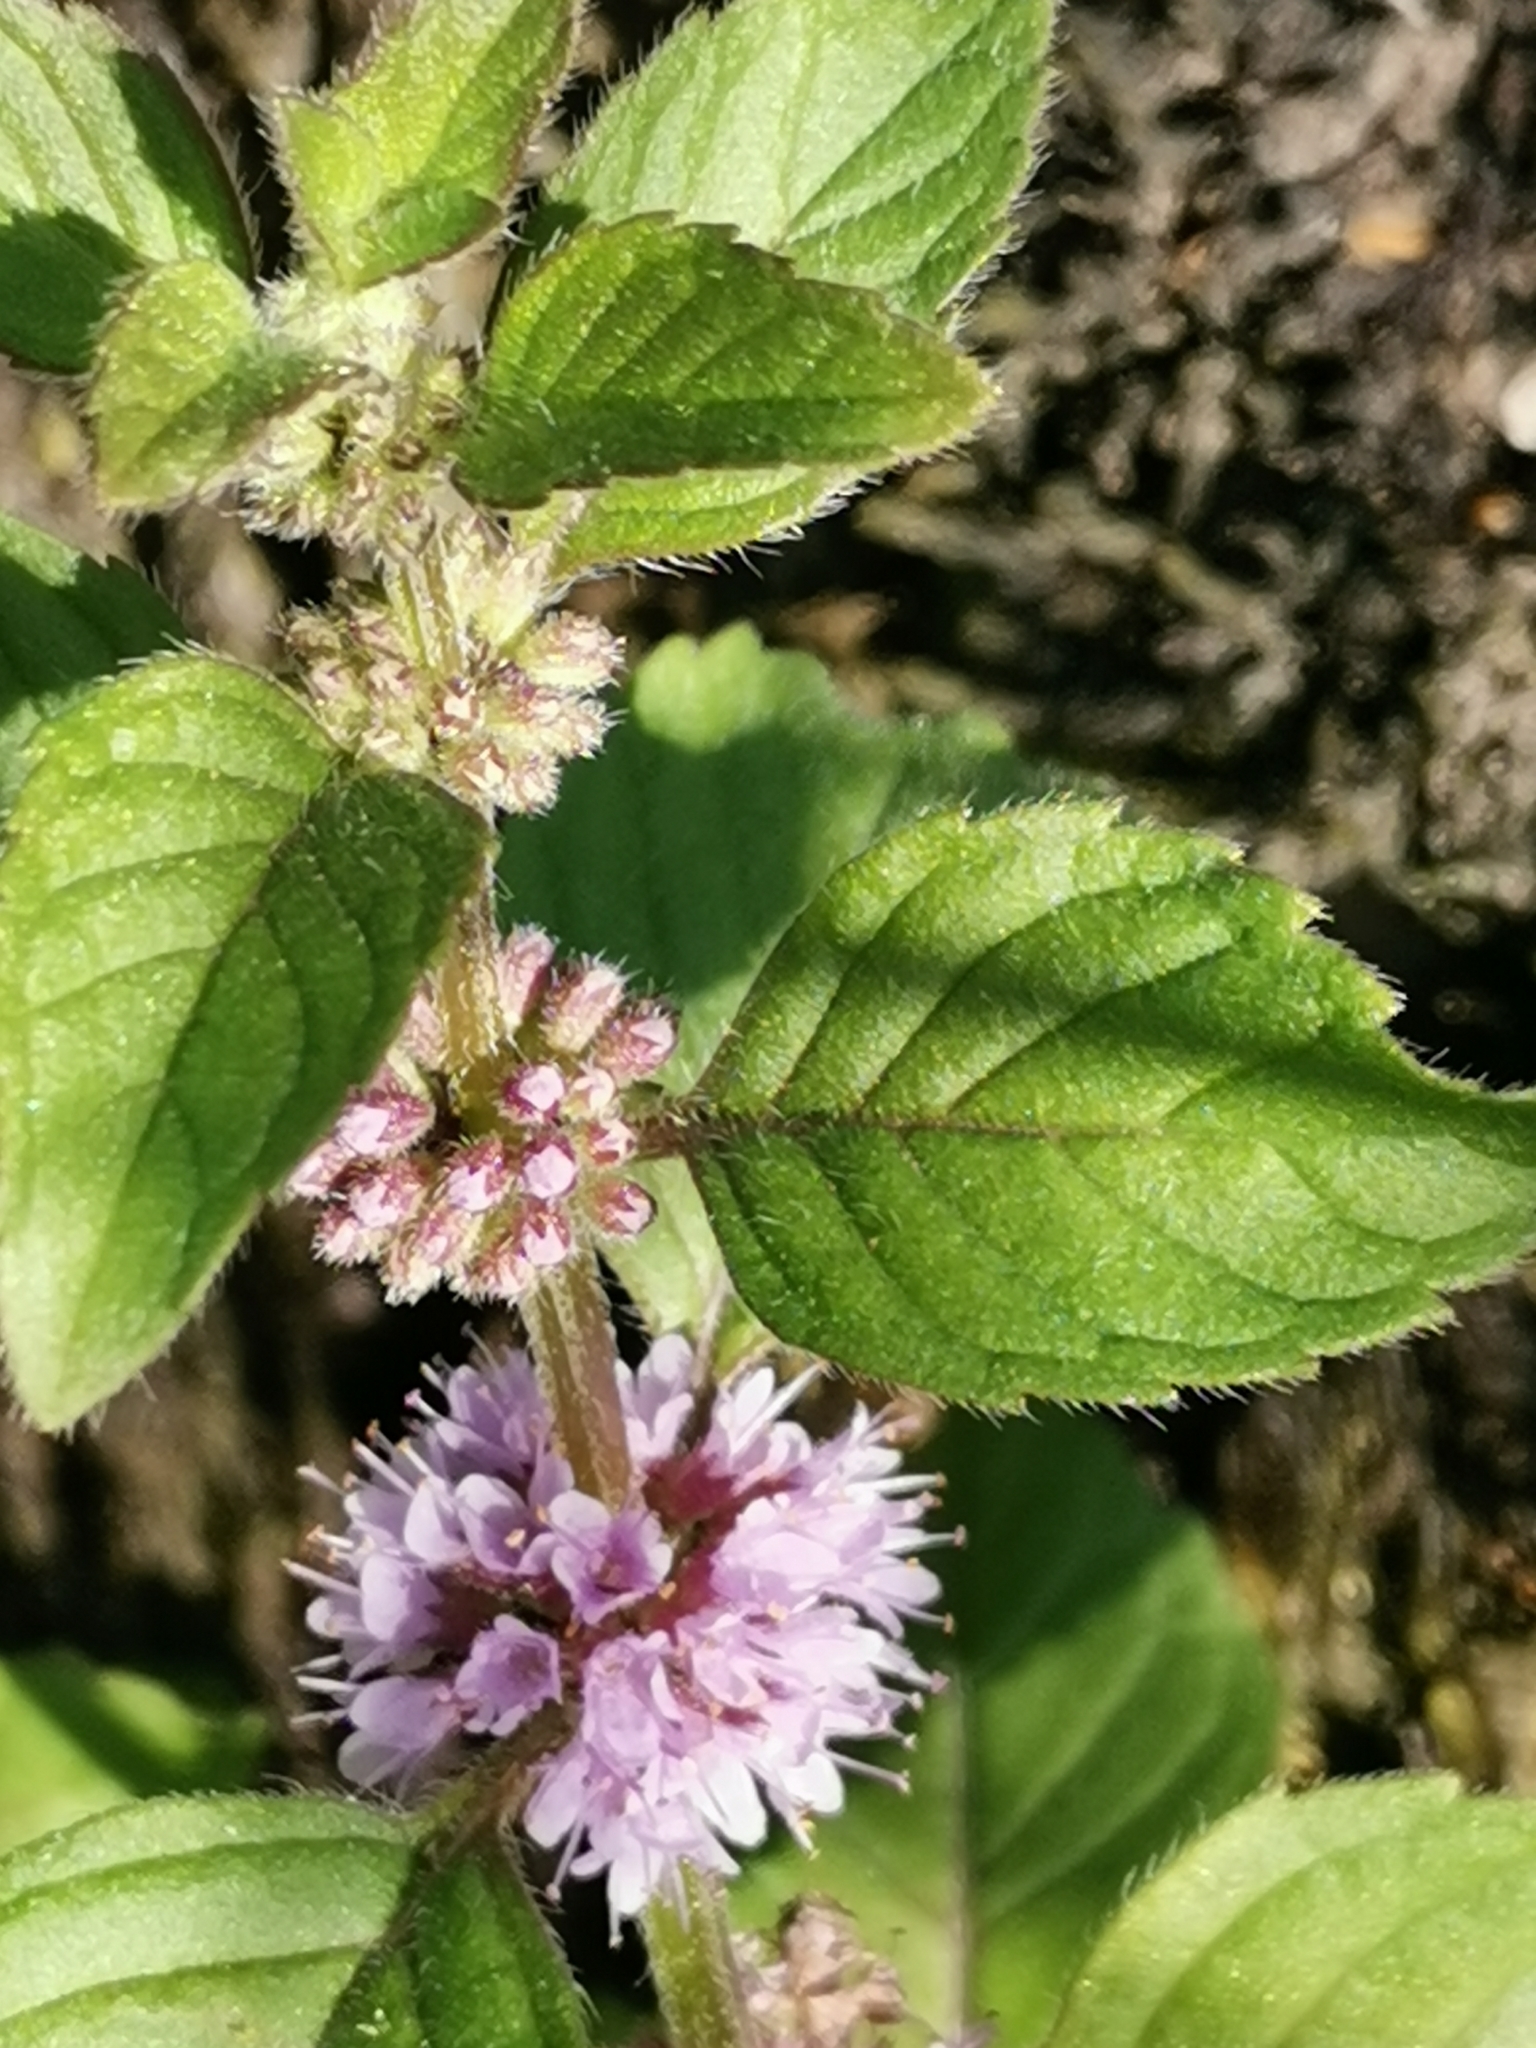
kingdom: Plantae
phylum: Tracheophyta
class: Magnoliopsida
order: Lamiales
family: Lamiaceae
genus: Mentha
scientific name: Mentha arvensis
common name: Corn mint
